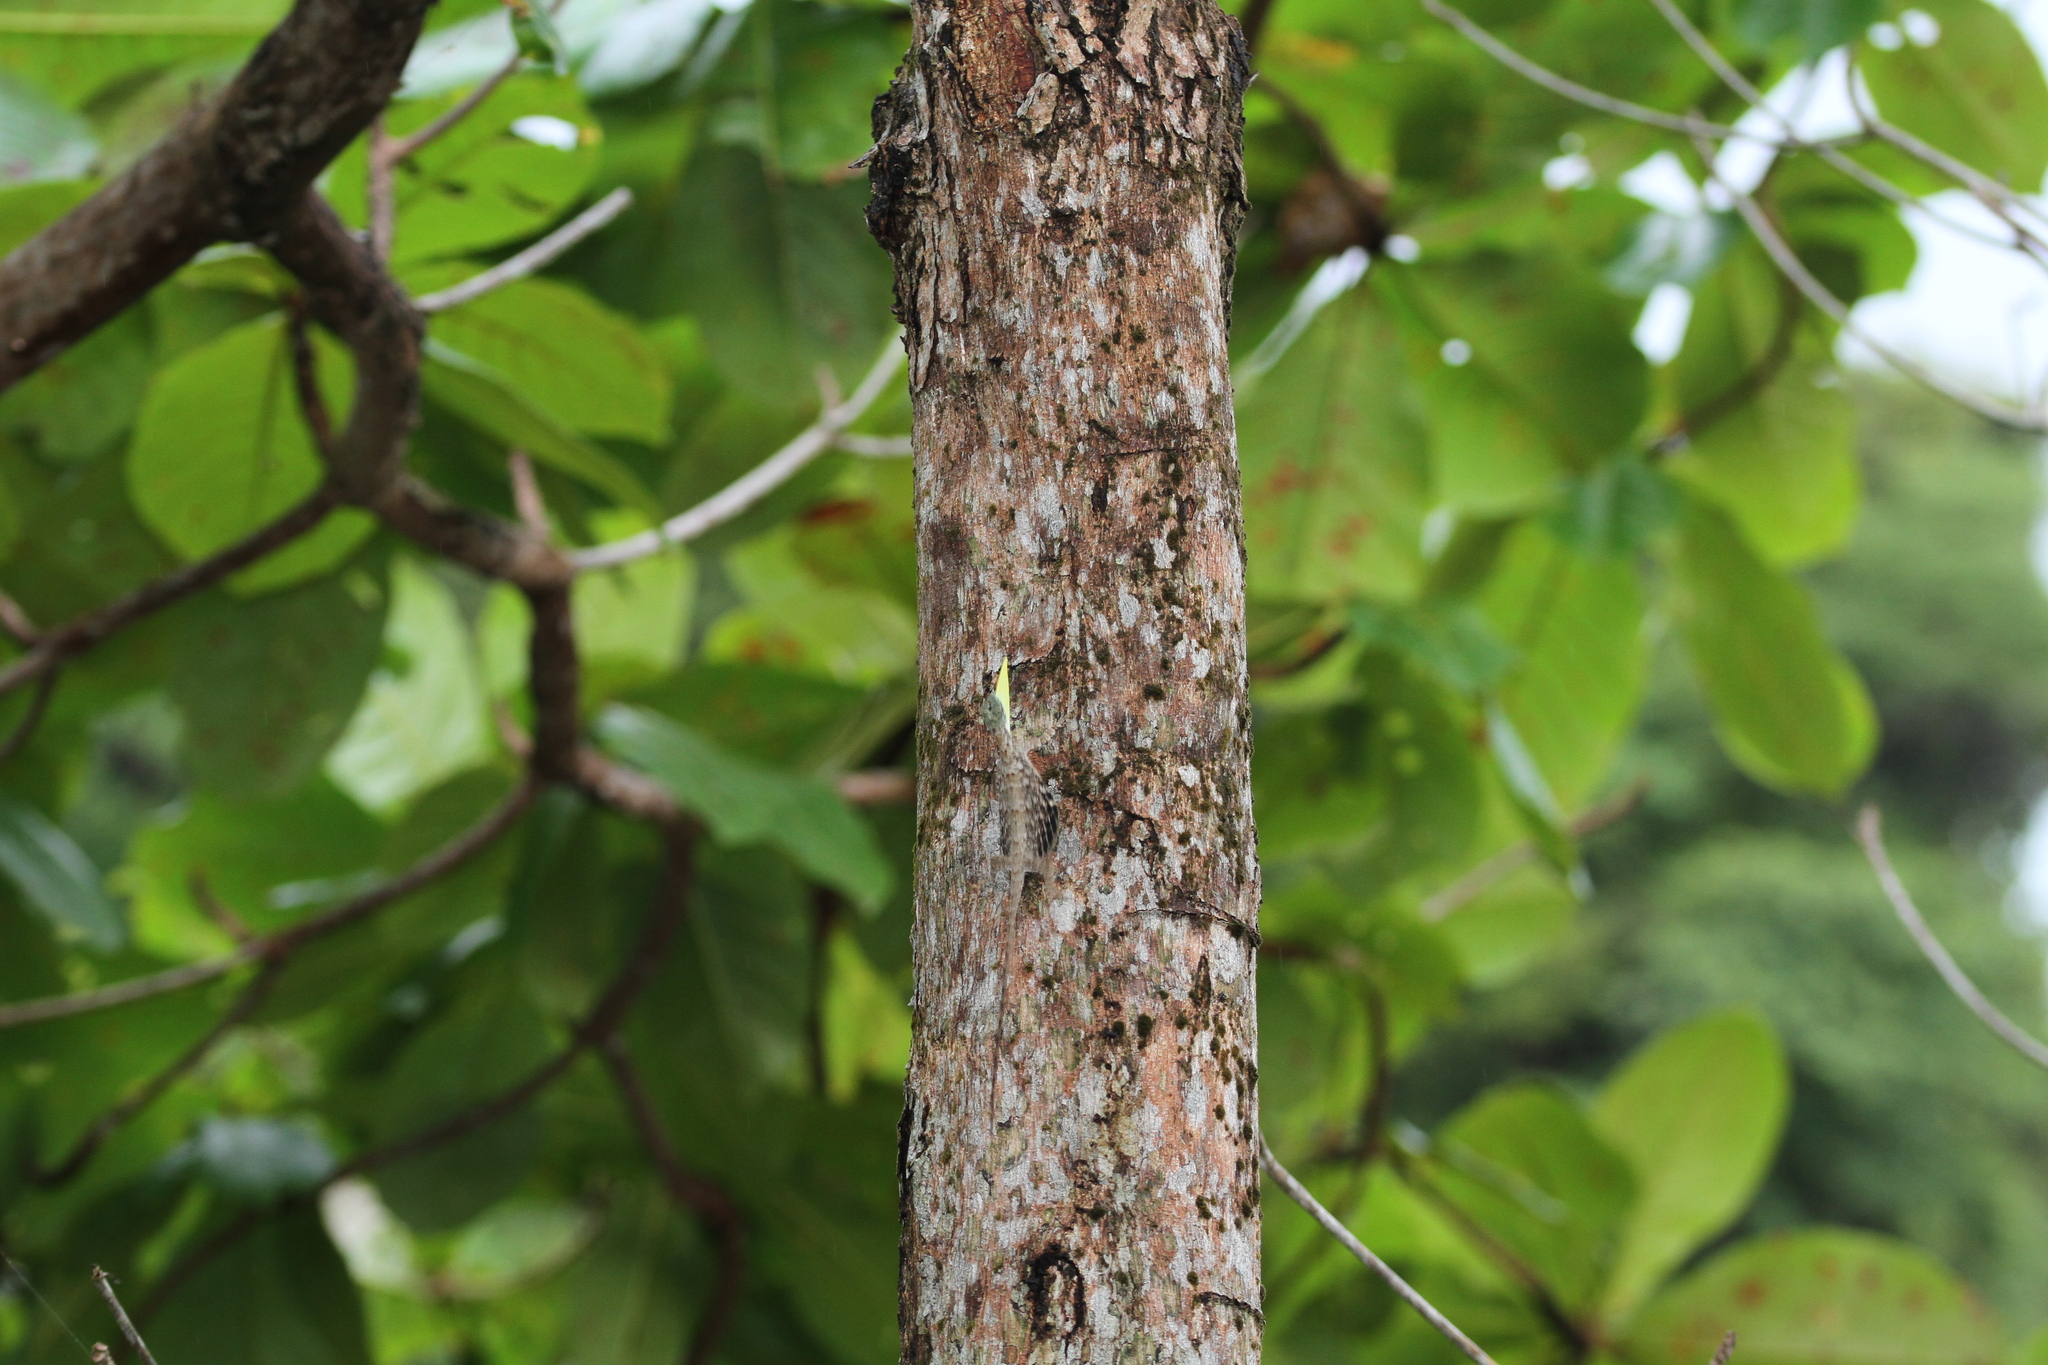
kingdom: Animalia
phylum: Chordata
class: Squamata
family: Agamidae
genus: Draco
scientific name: Draco sumatranus
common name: Common gliding lizard
